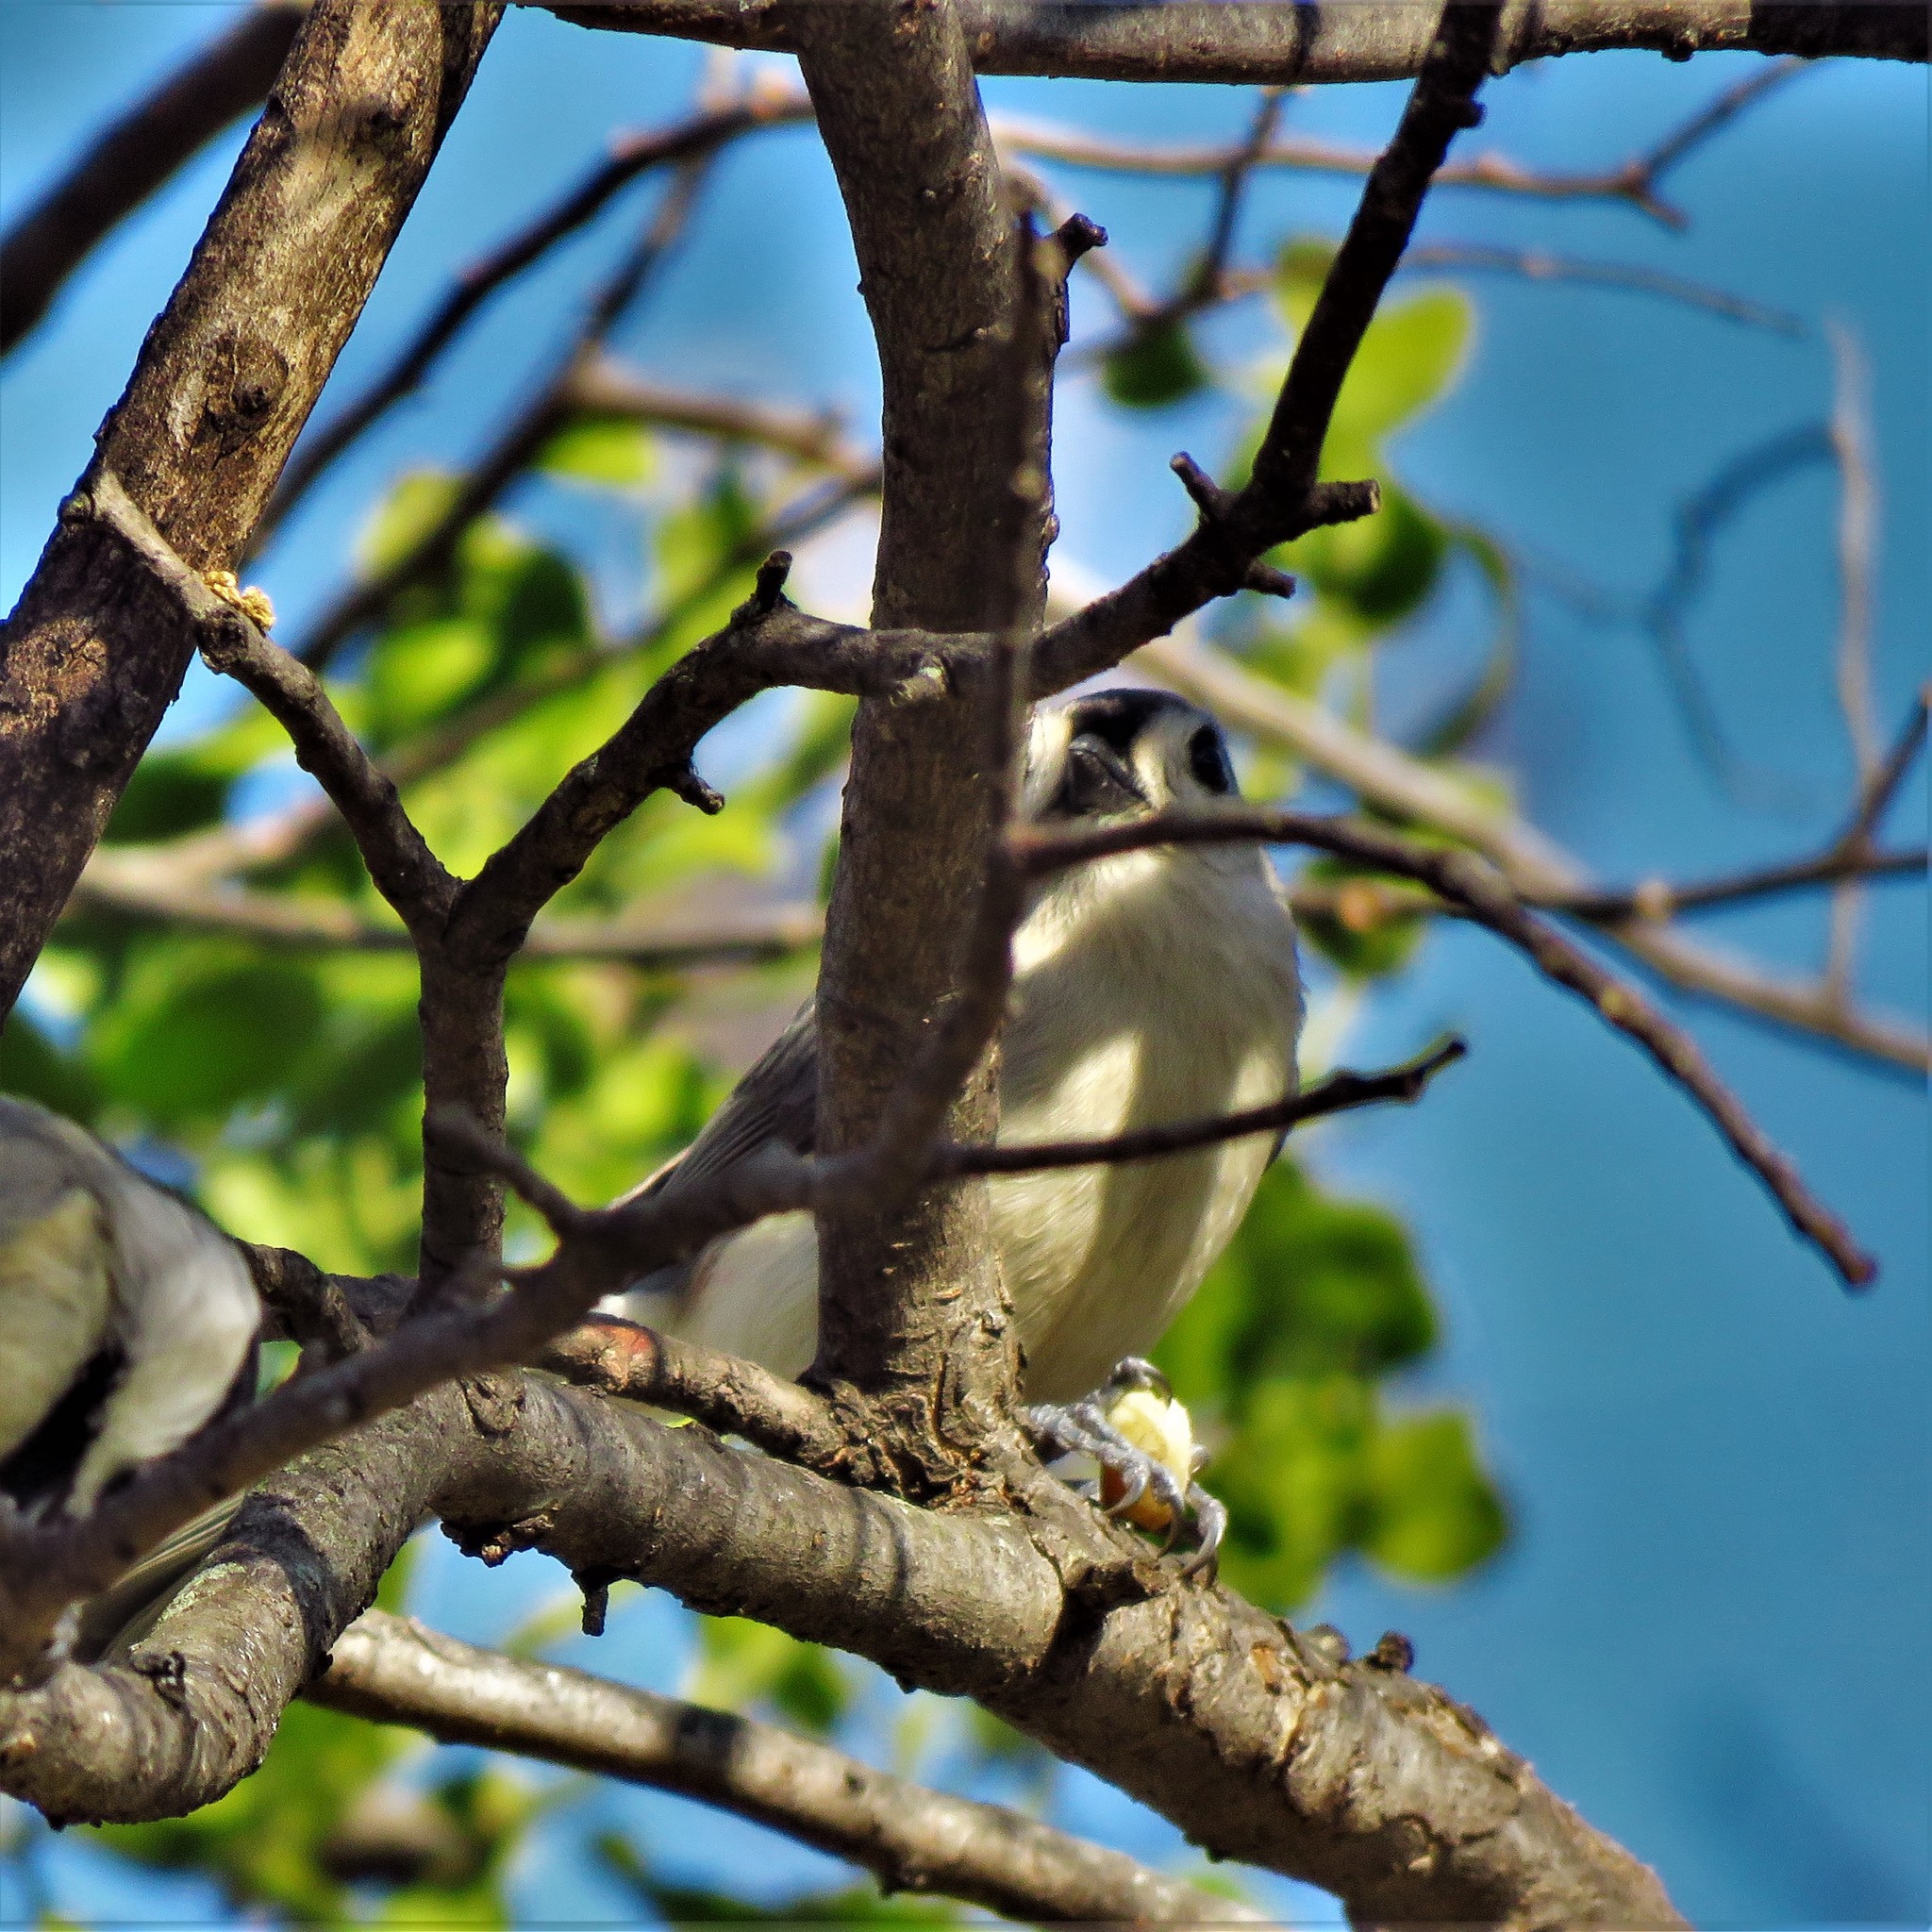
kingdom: Animalia
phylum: Chordata
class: Aves
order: Passeriformes
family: Paridae
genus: Baeolophus
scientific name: Baeolophus bicolor
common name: Tufted titmouse
